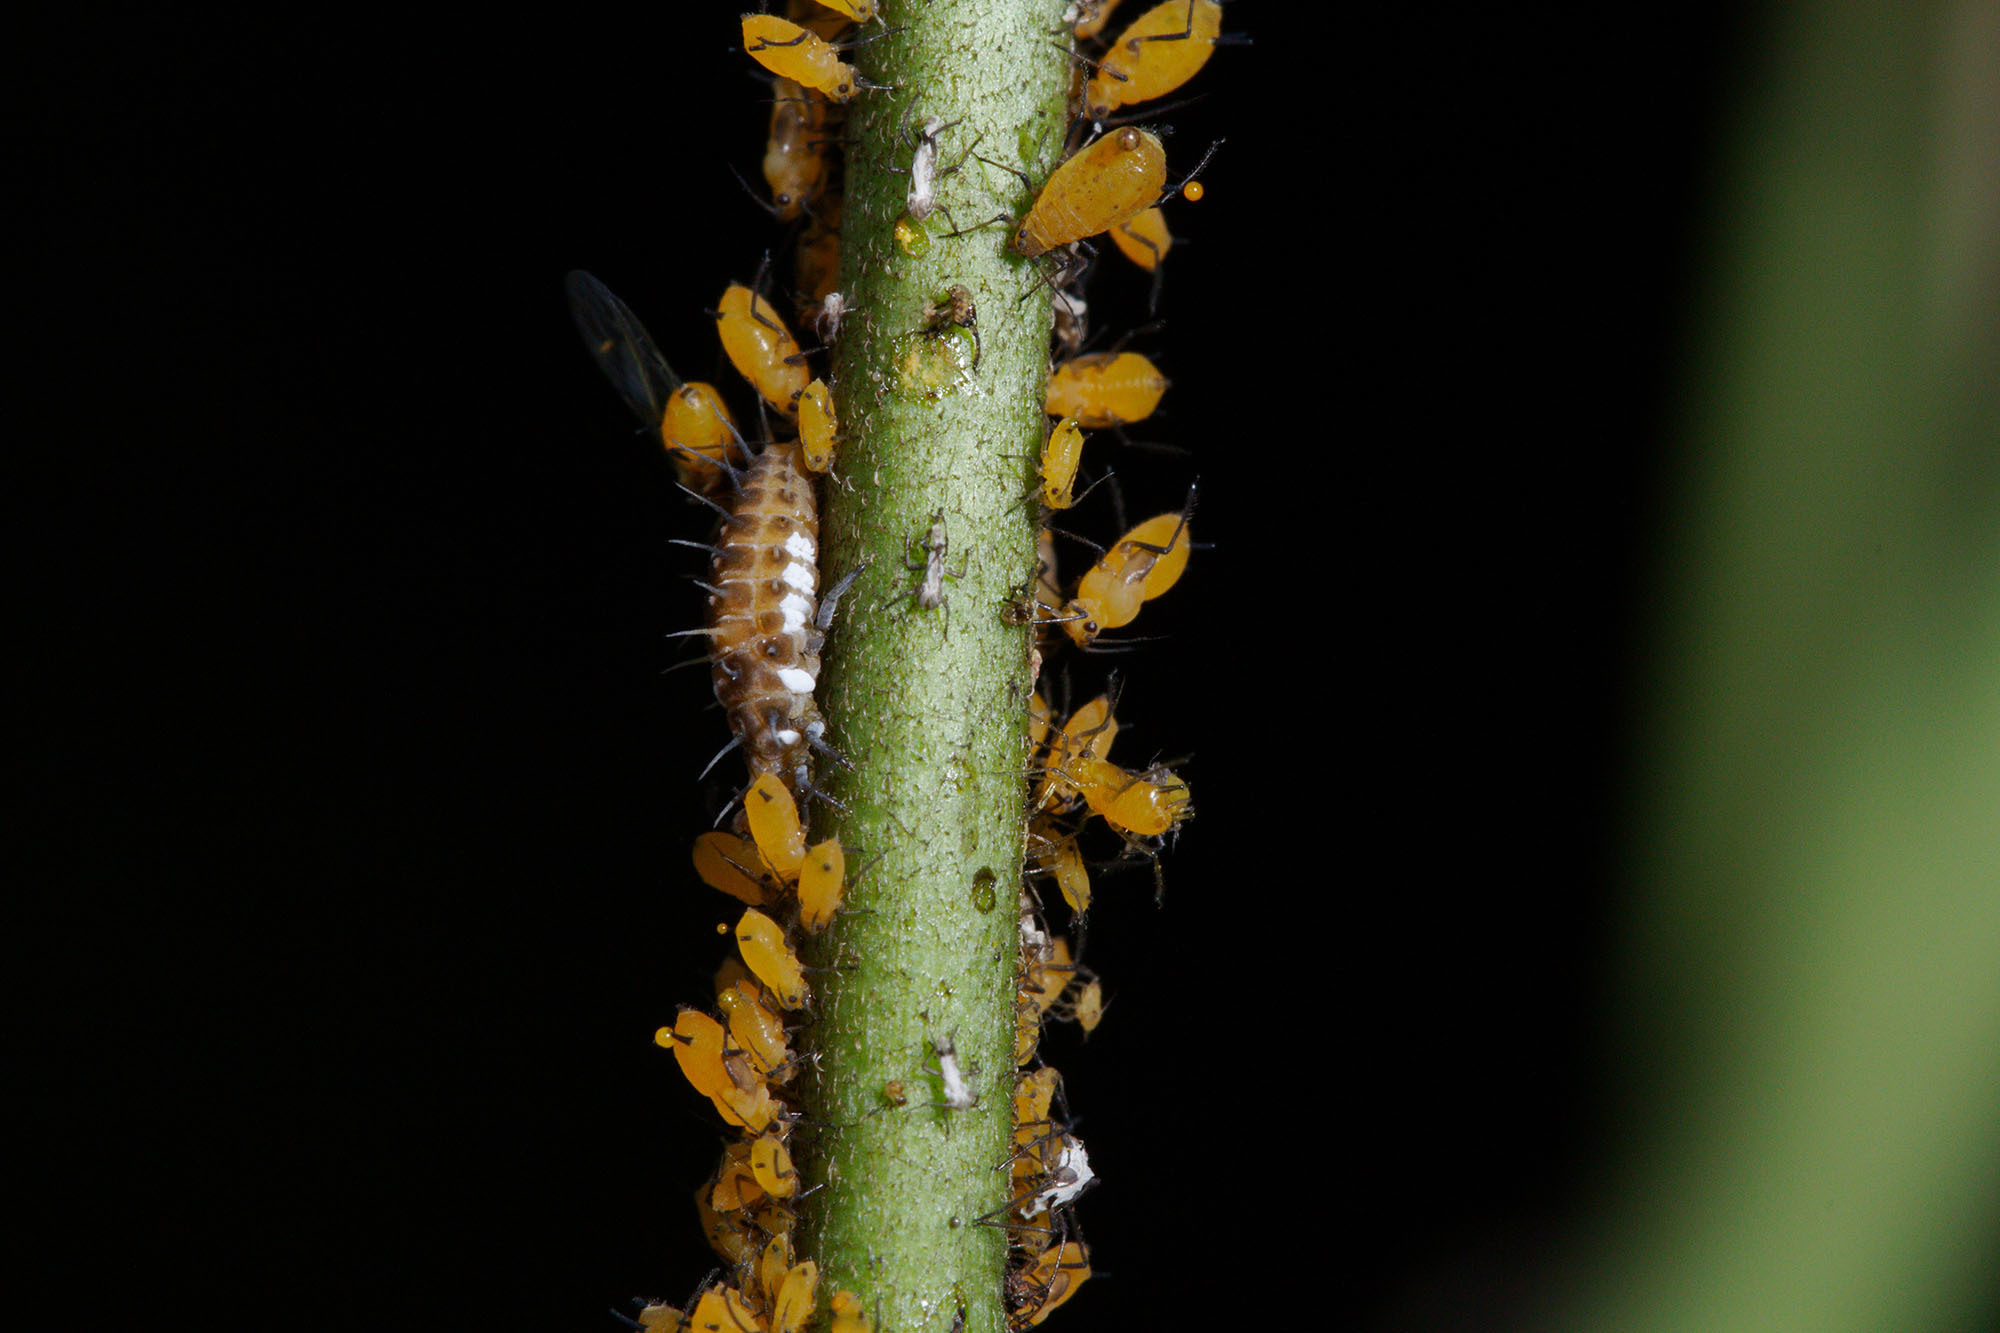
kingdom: Animalia
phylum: Arthropoda
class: Insecta
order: Hemiptera
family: Aphididae
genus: Aphis
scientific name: Aphis nerii
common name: Oleander aphid
